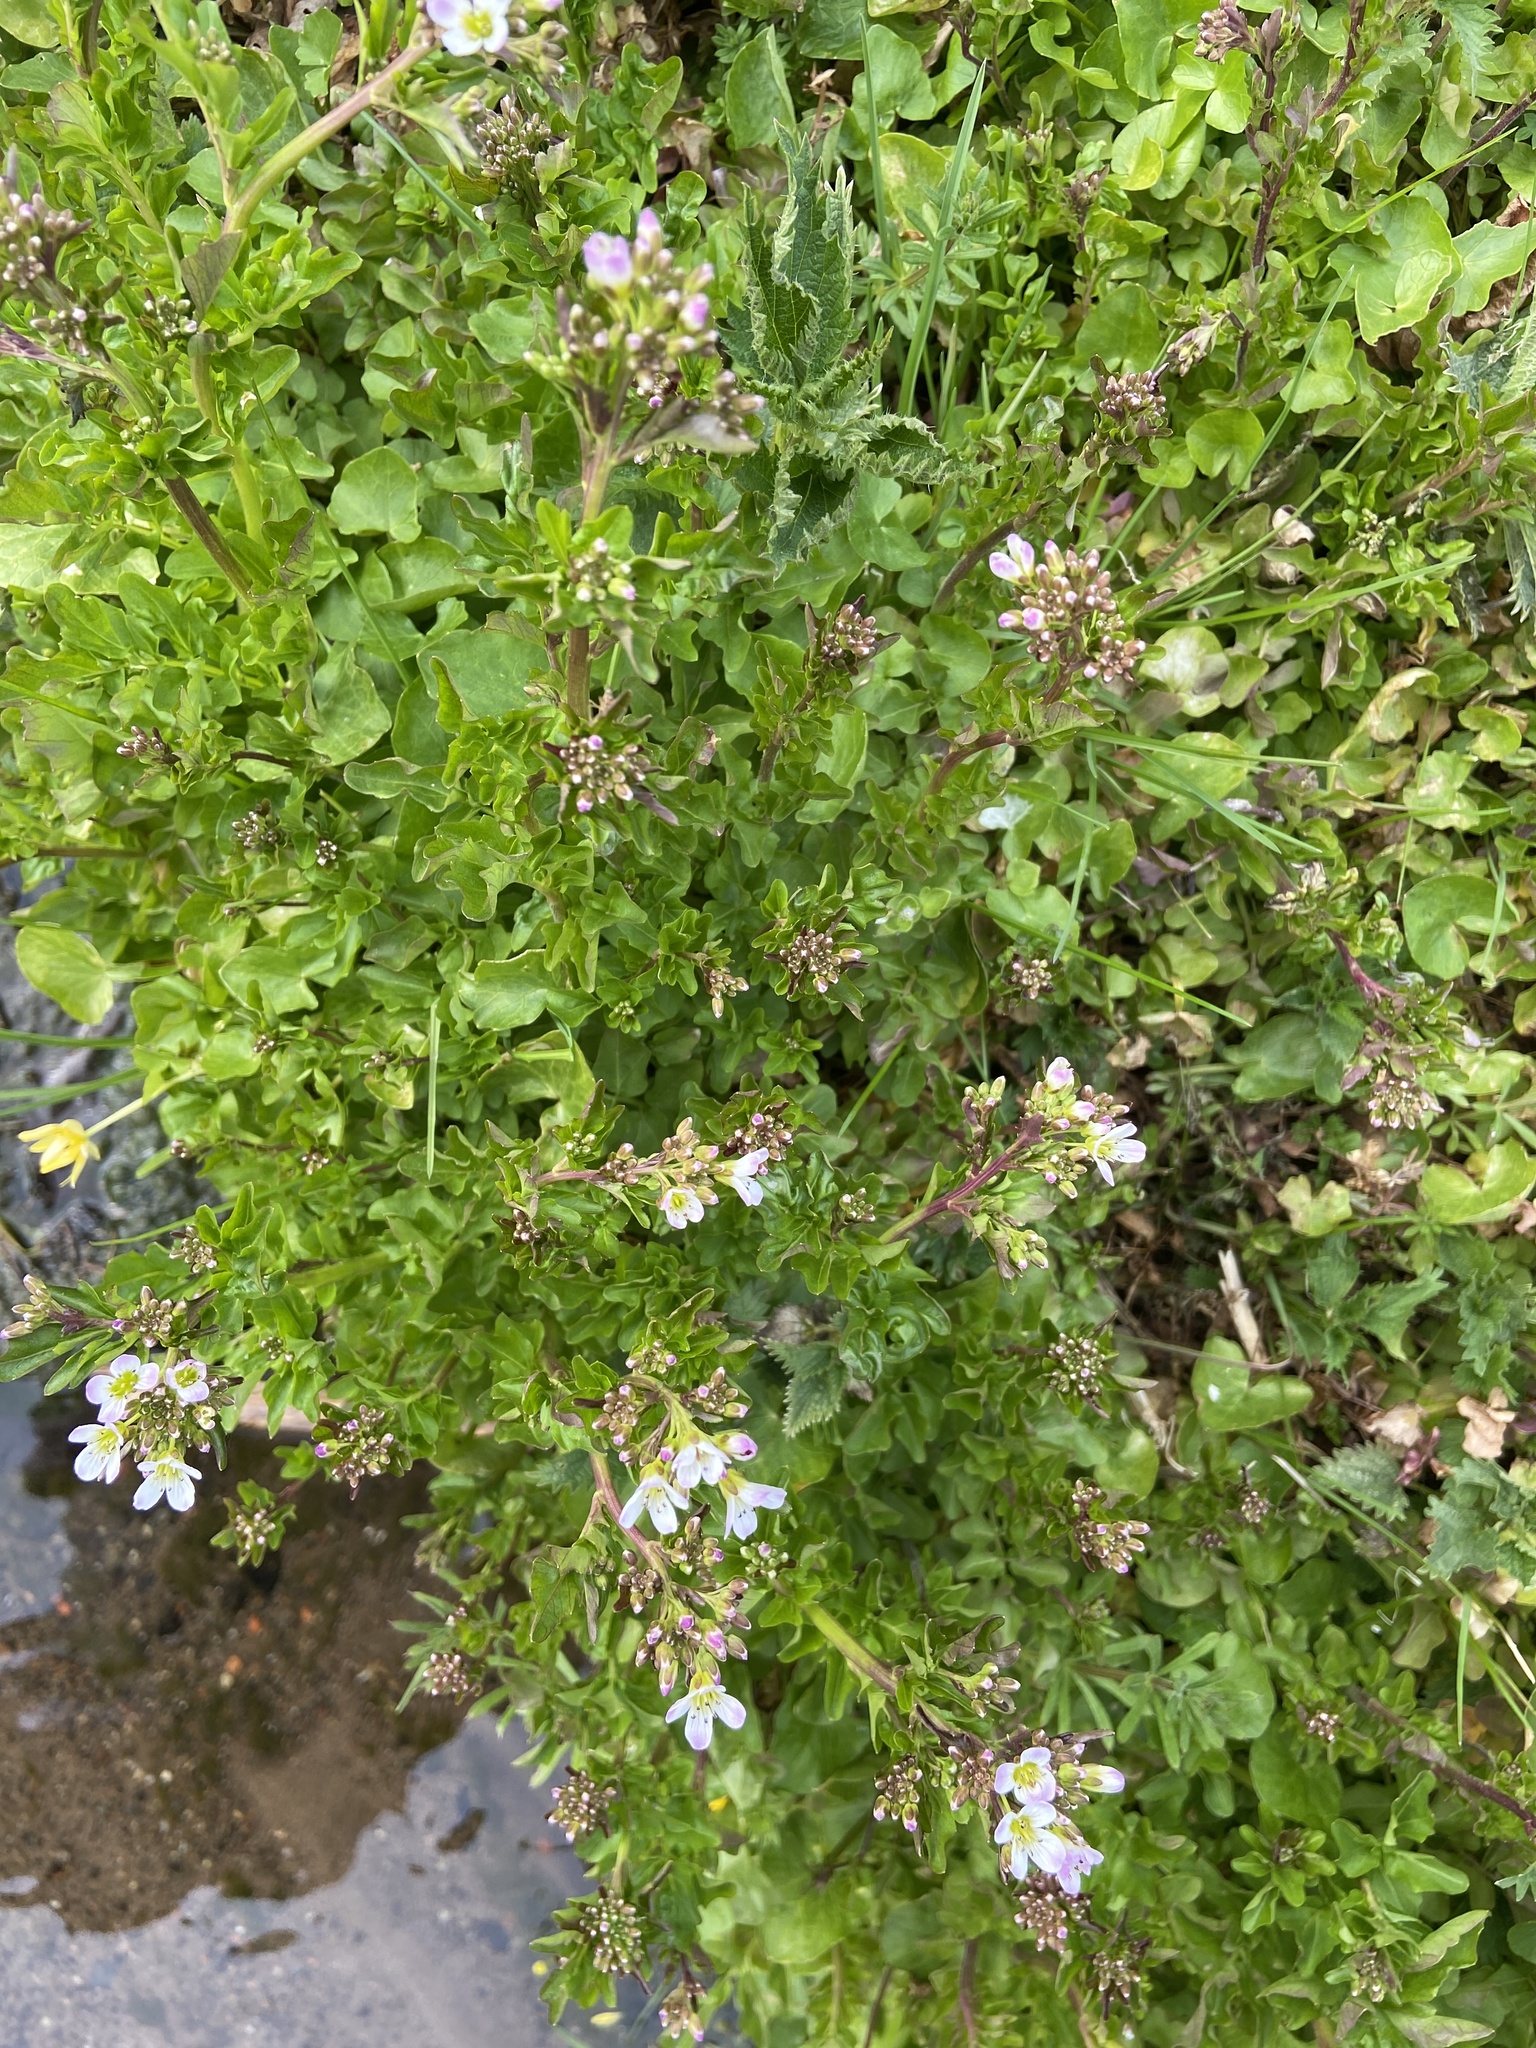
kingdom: Plantae
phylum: Tracheophyta
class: Magnoliopsida
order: Brassicales
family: Brassicaceae
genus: Cardamine
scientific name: Cardamine pratensis
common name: Cuckoo flower
